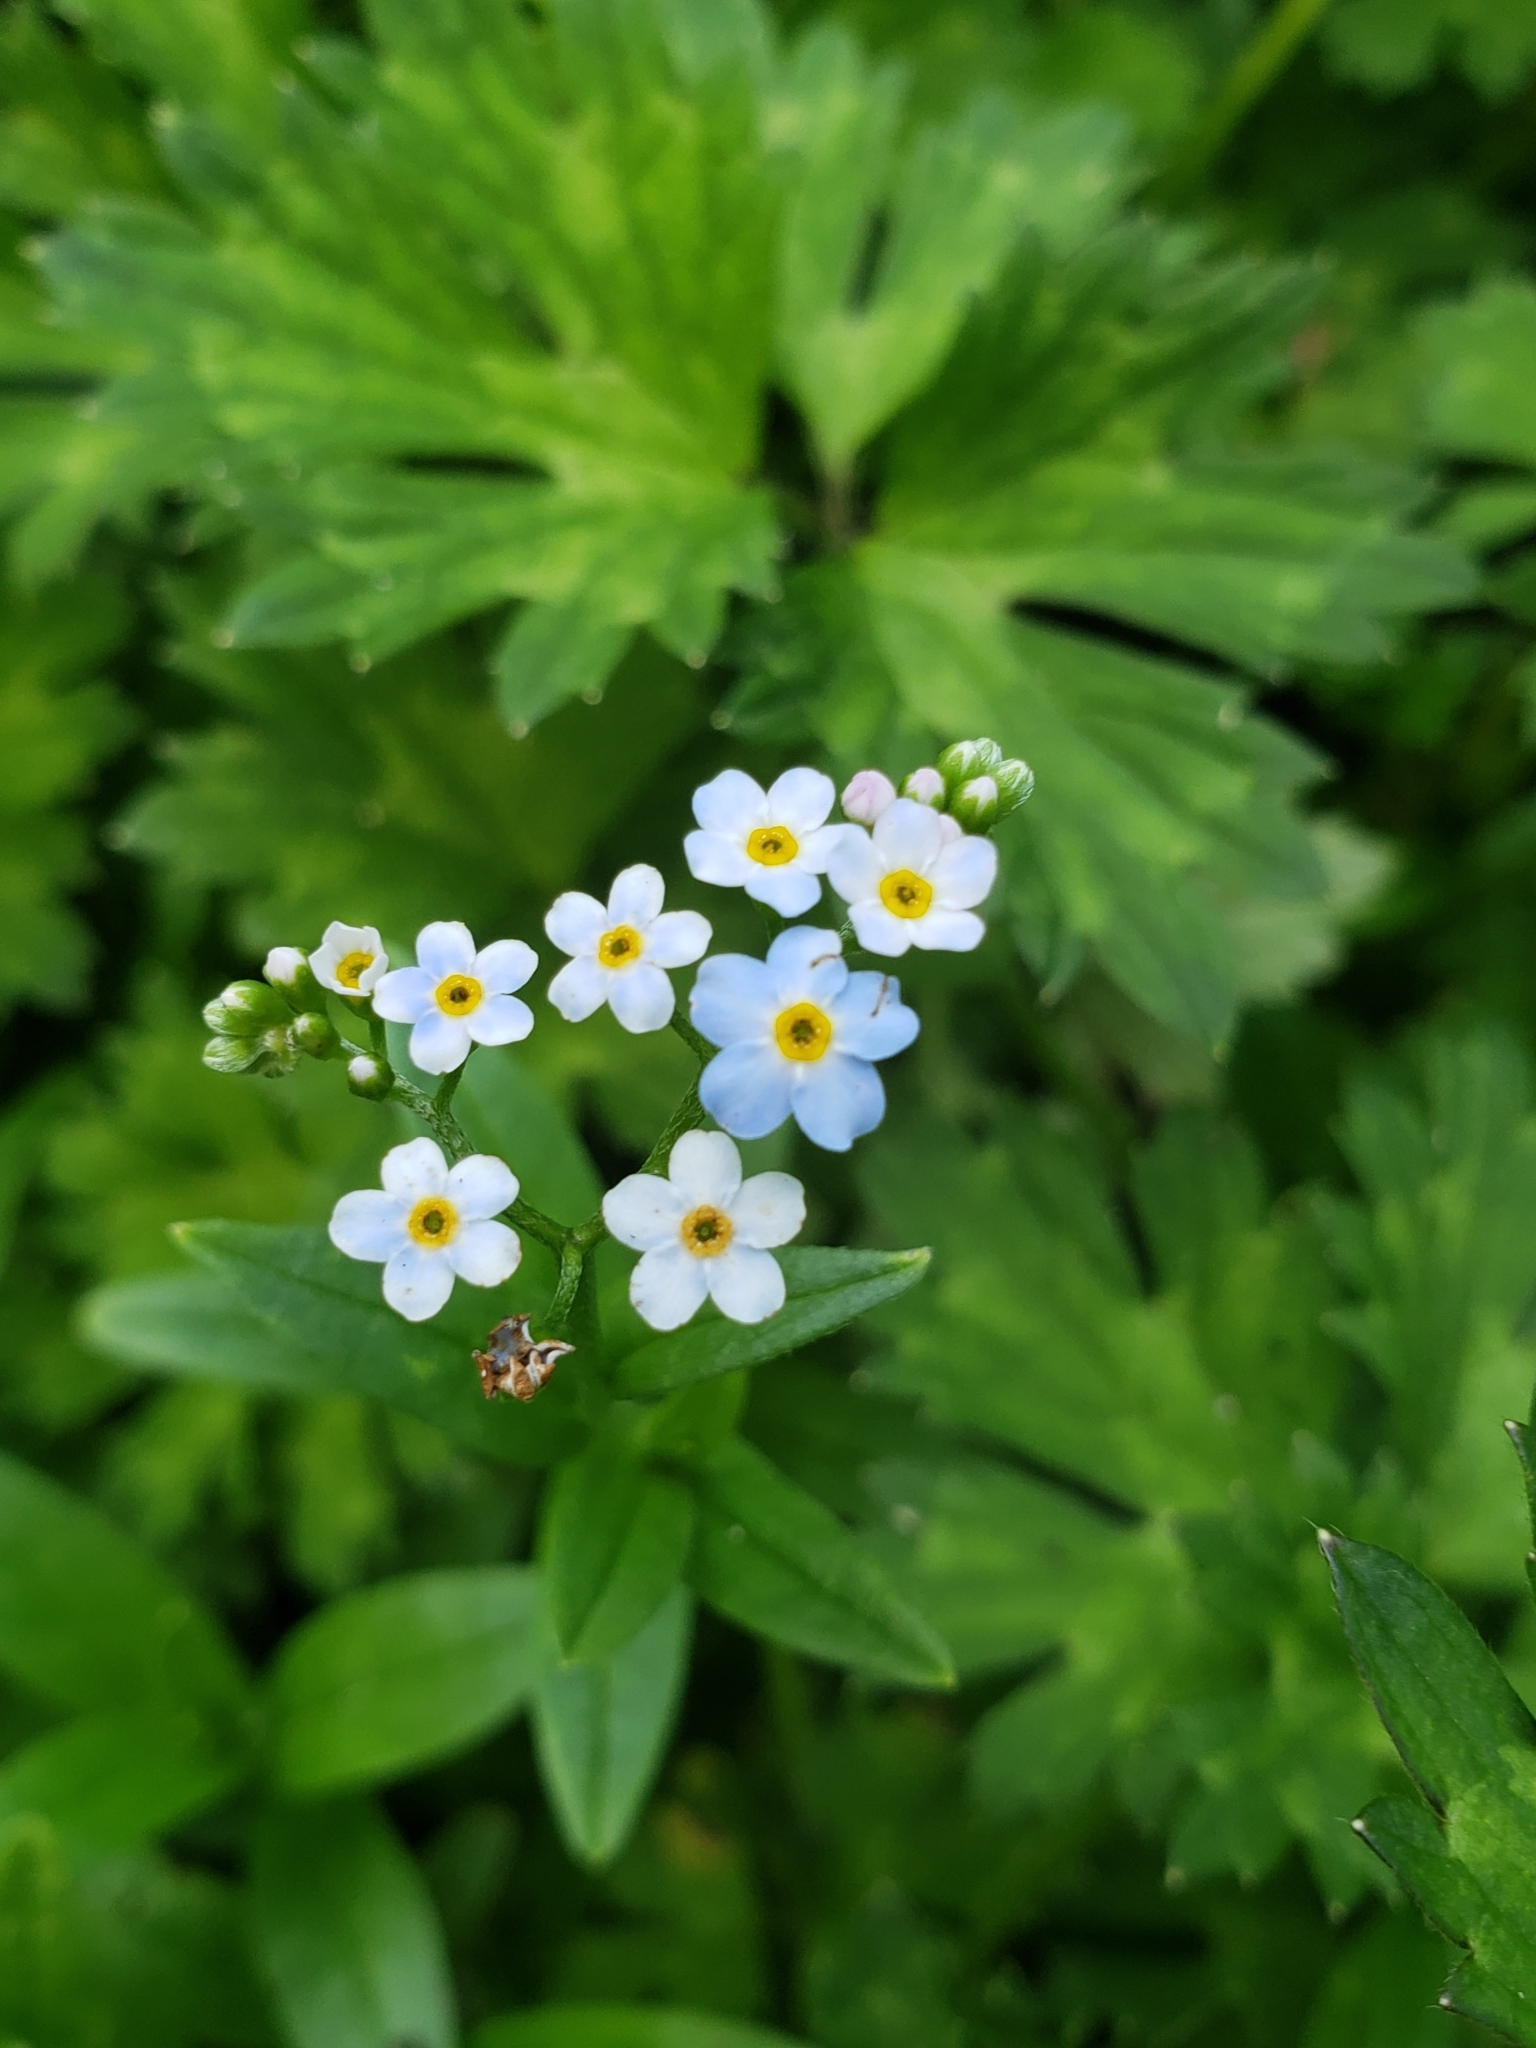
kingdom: Plantae
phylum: Tracheophyta
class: Magnoliopsida
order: Boraginales
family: Boraginaceae
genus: Myosotis
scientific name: Myosotis scorpioides
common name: Water forget-me-not
